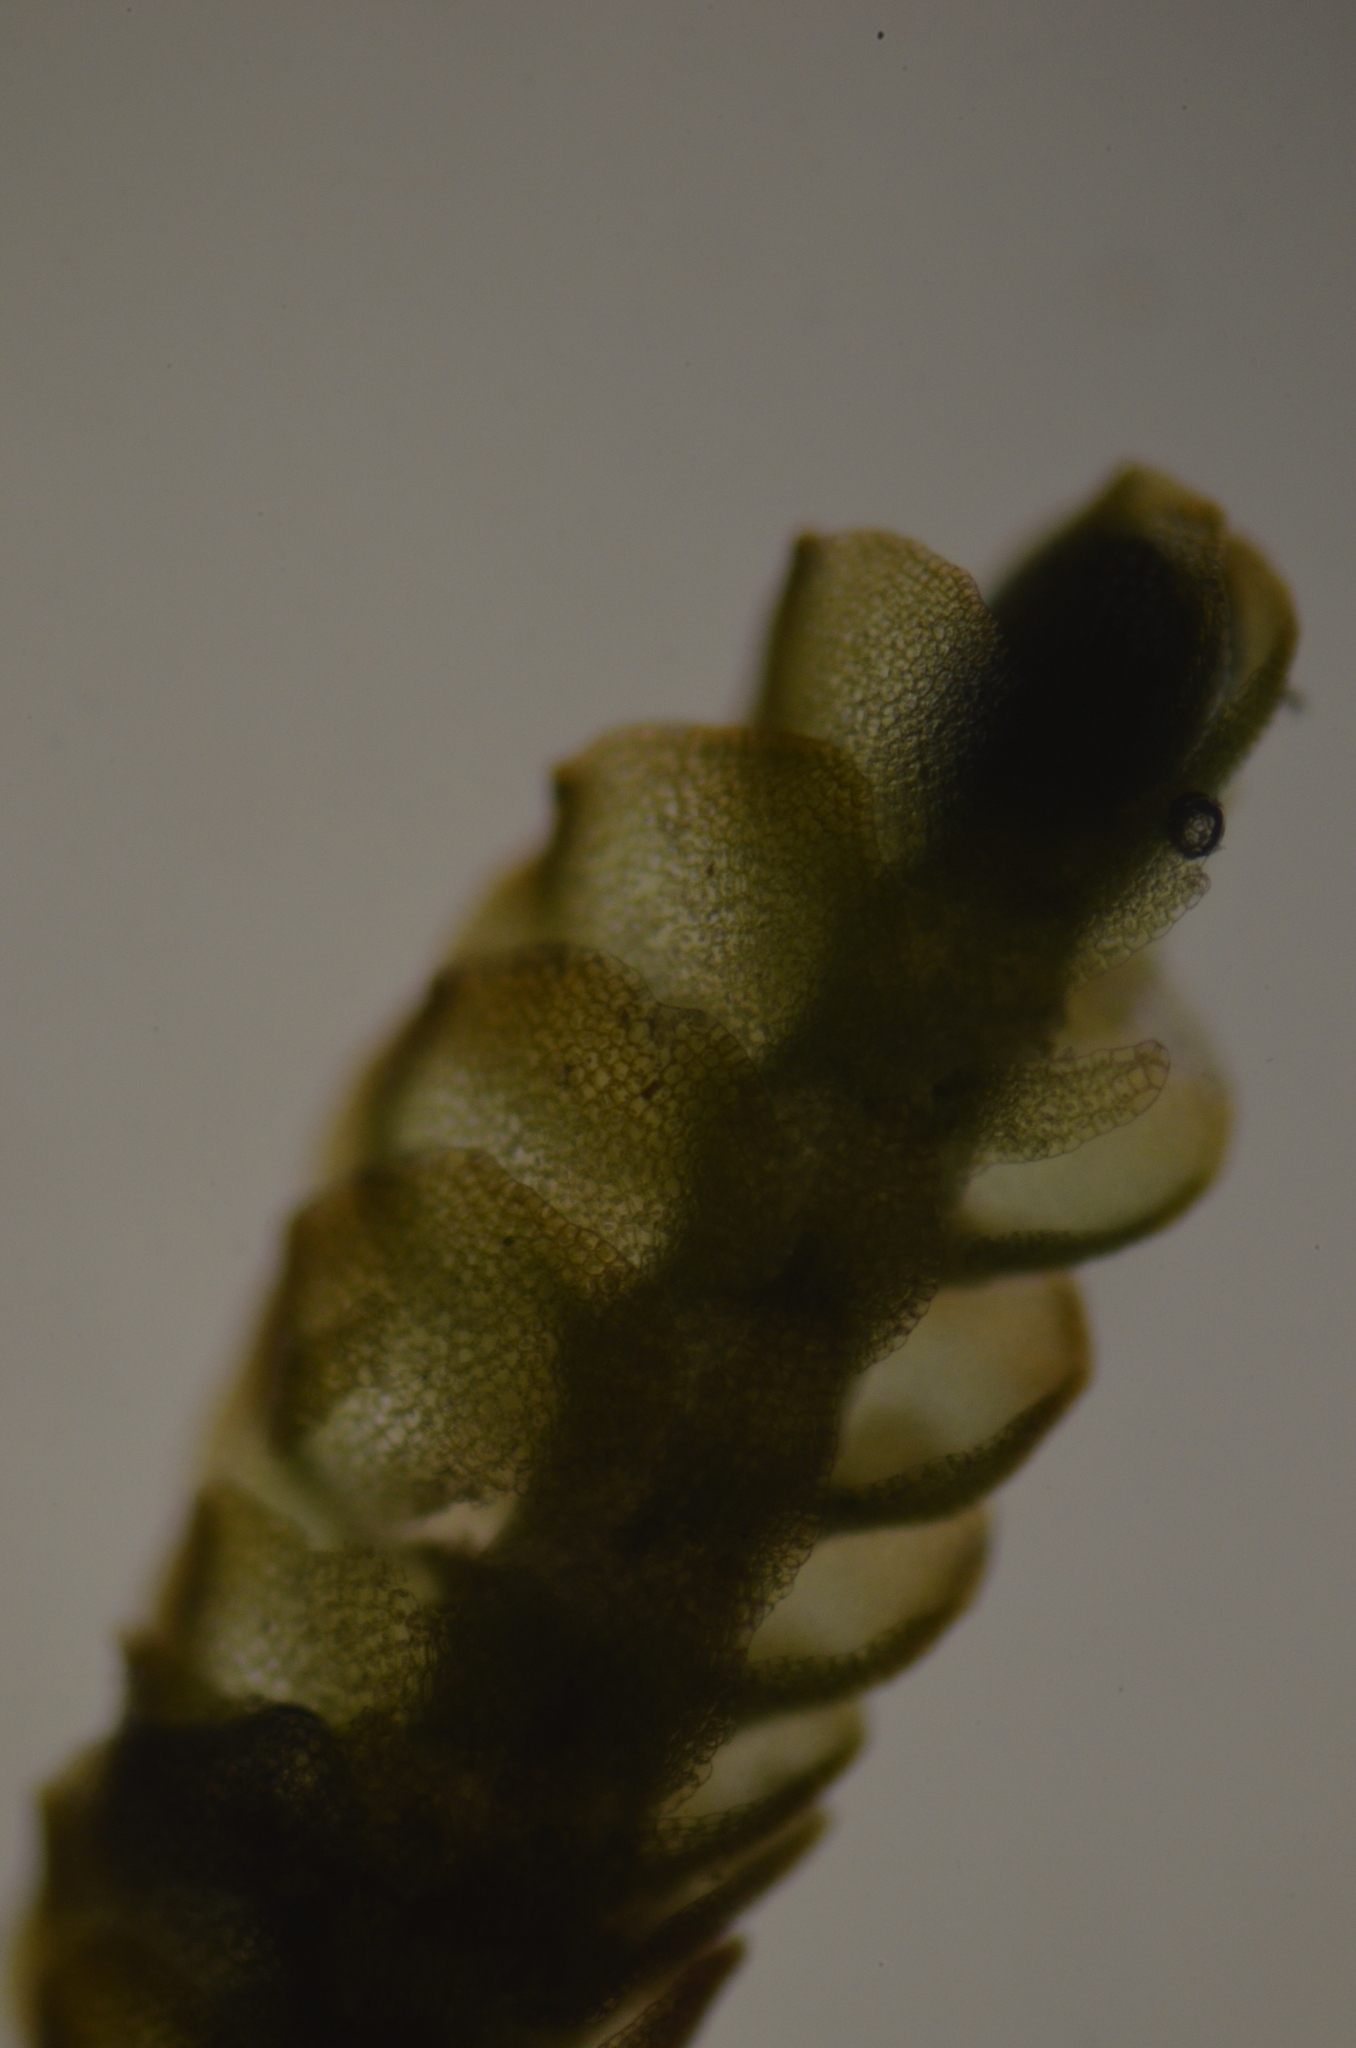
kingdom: Plantae
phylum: Marchantiophyta
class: Jungermanniopsida
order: Jungermanniales
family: Gymnomitriaceae
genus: Nardia
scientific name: Nardia geoscyphus
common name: Earth-cup flapwort
